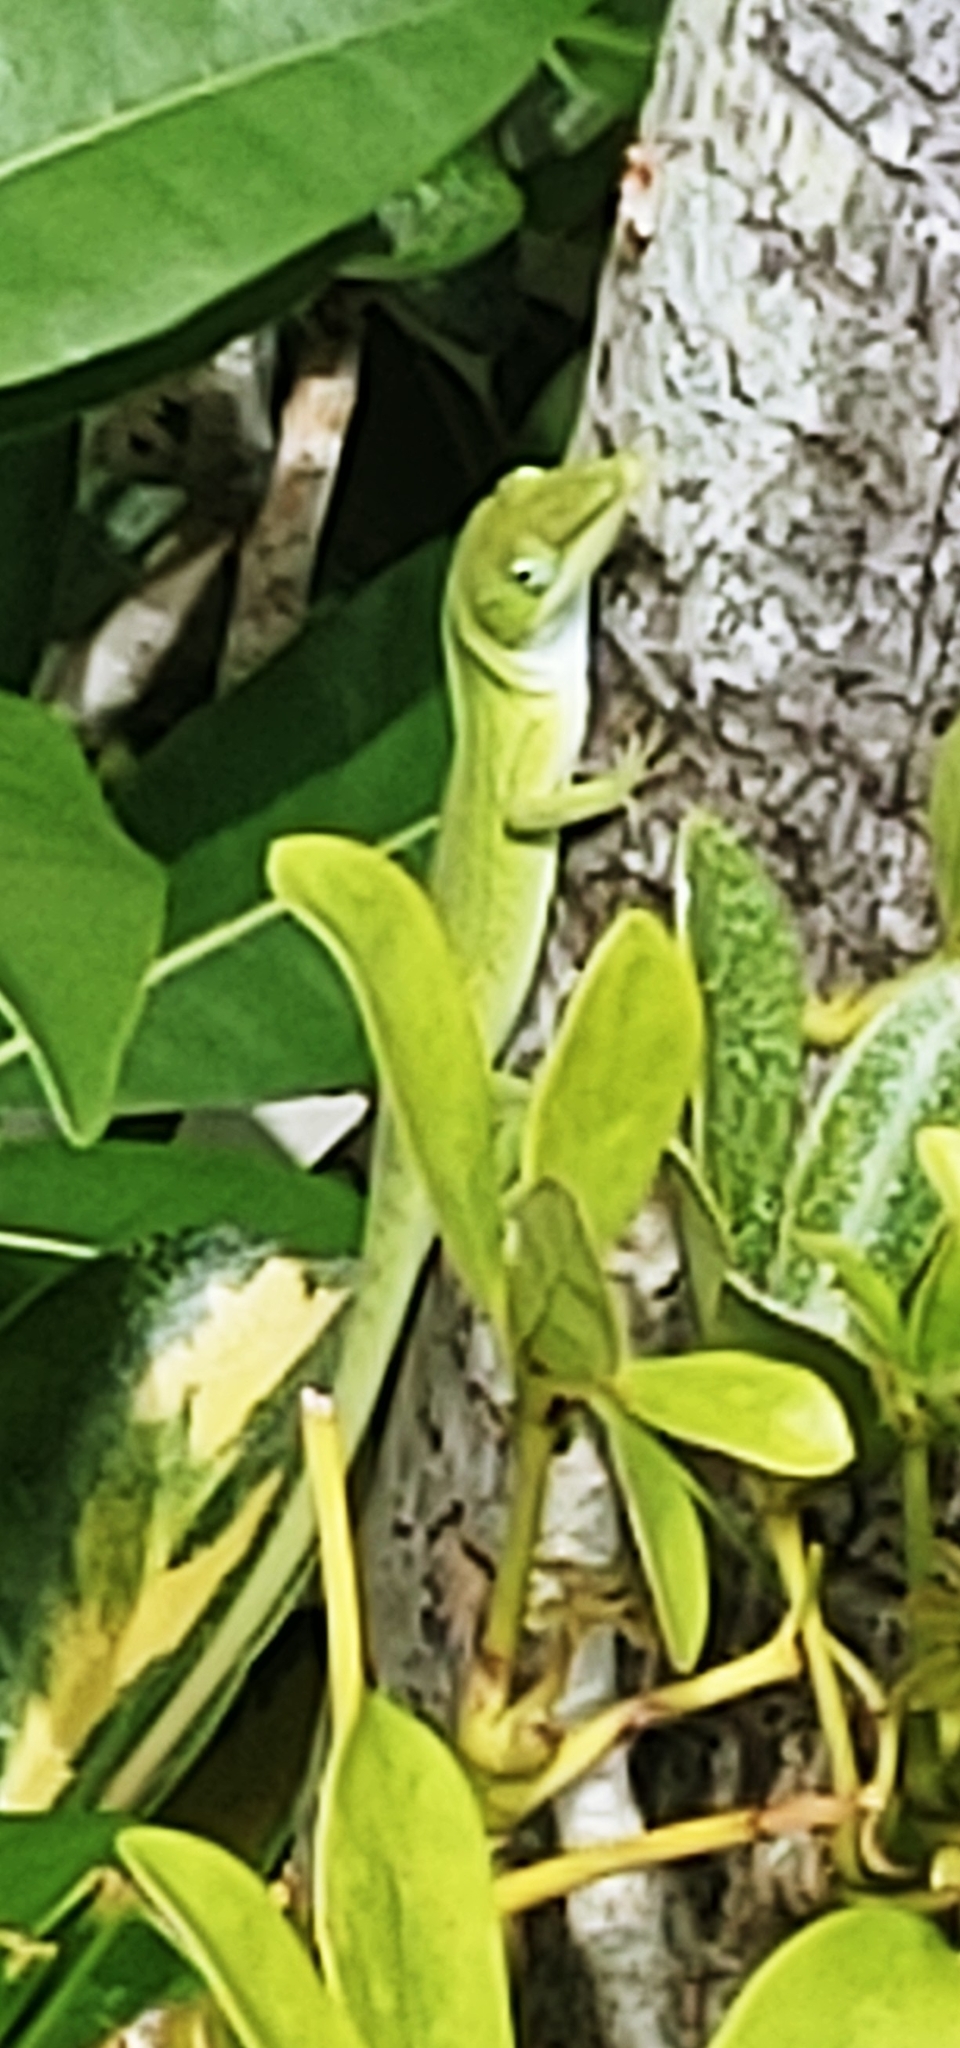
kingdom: Animalia
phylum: Chordata
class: Squamata
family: Dactyloidae
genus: Anolis
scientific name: Anolis carolinensis
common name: Green anole
